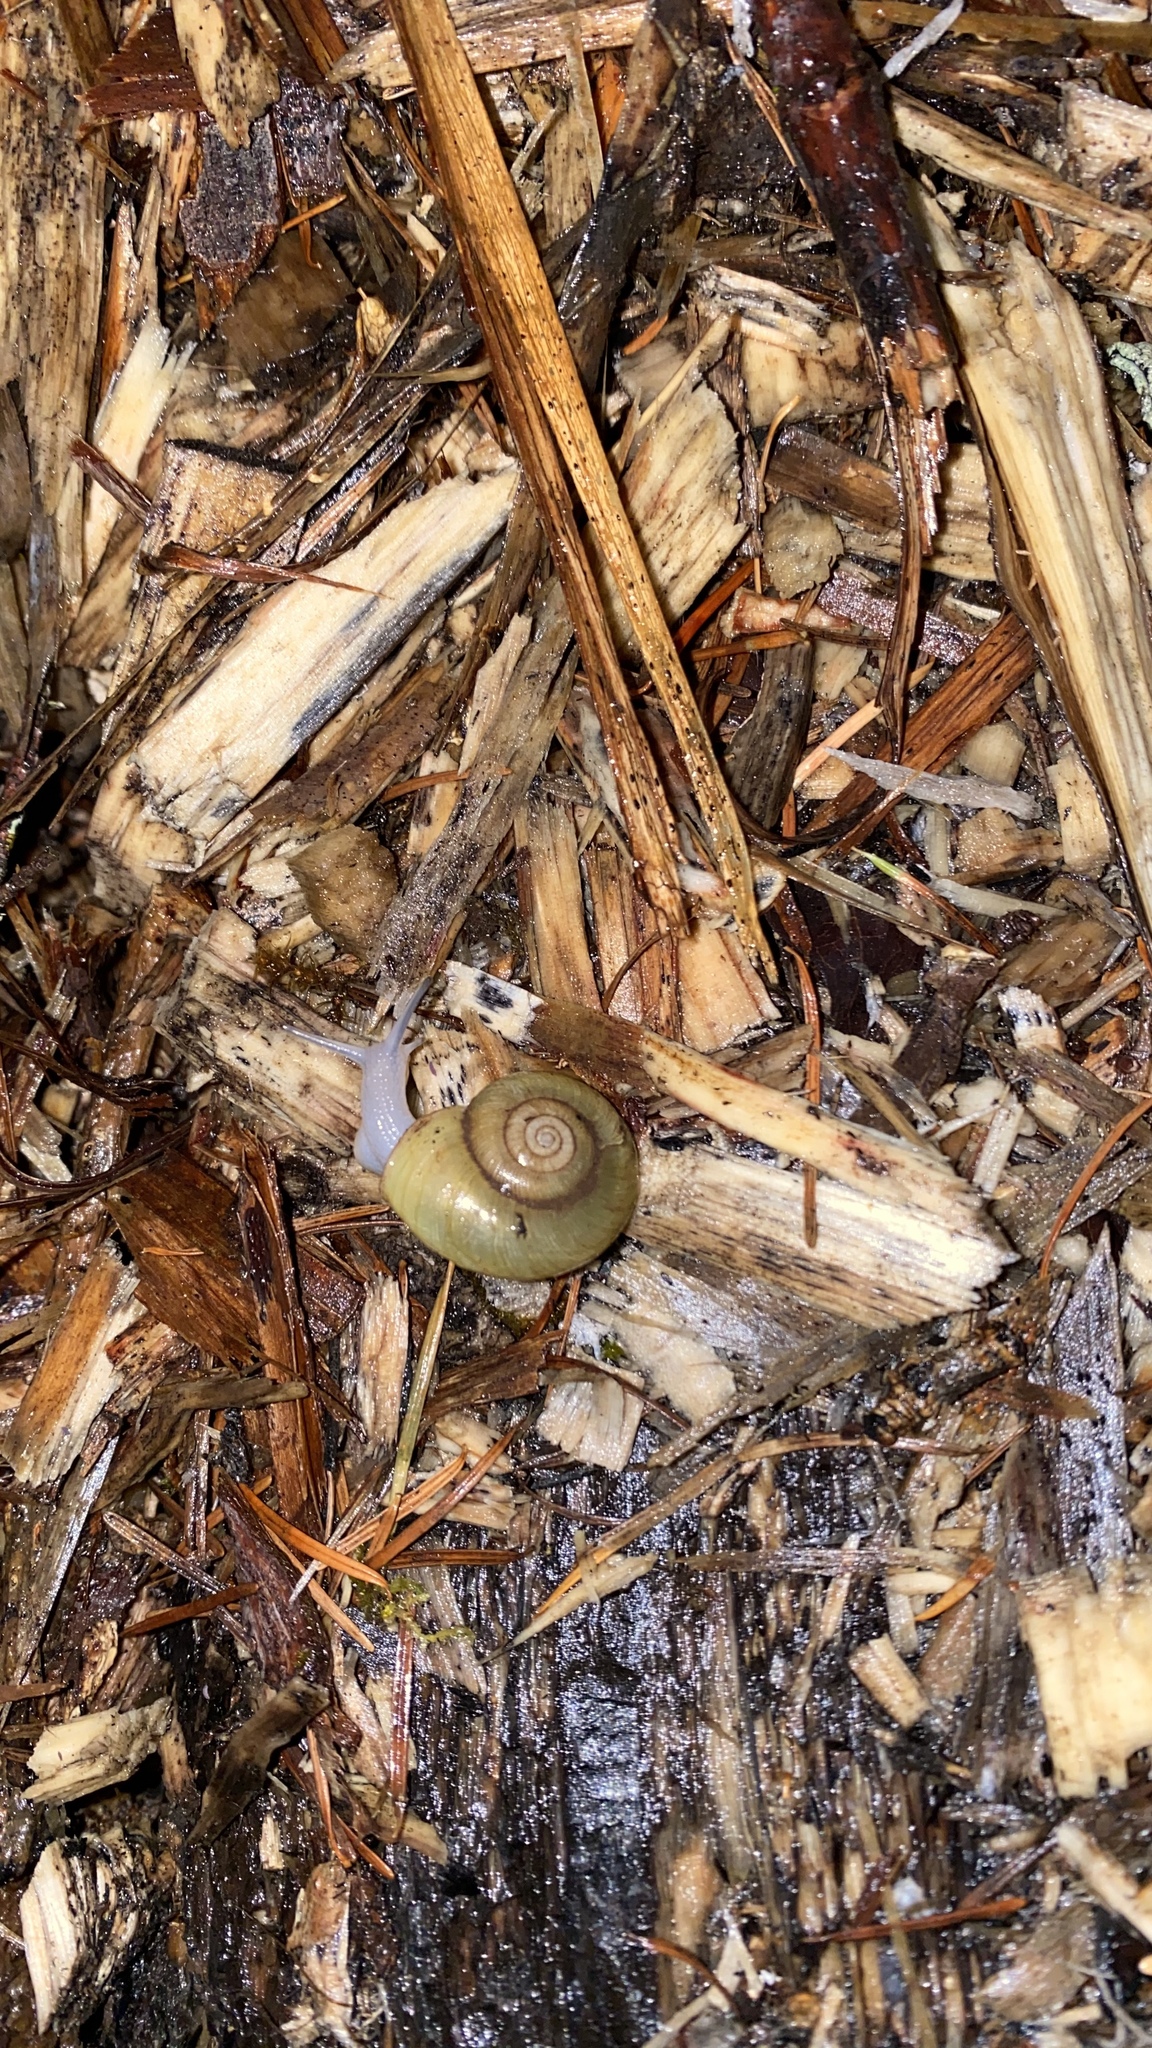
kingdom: Animalia
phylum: Mollusca
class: Gastropoda
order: Stylommatophora
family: Haplotrematidae
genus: Haplotrema
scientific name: Haplotrema vancouverense
